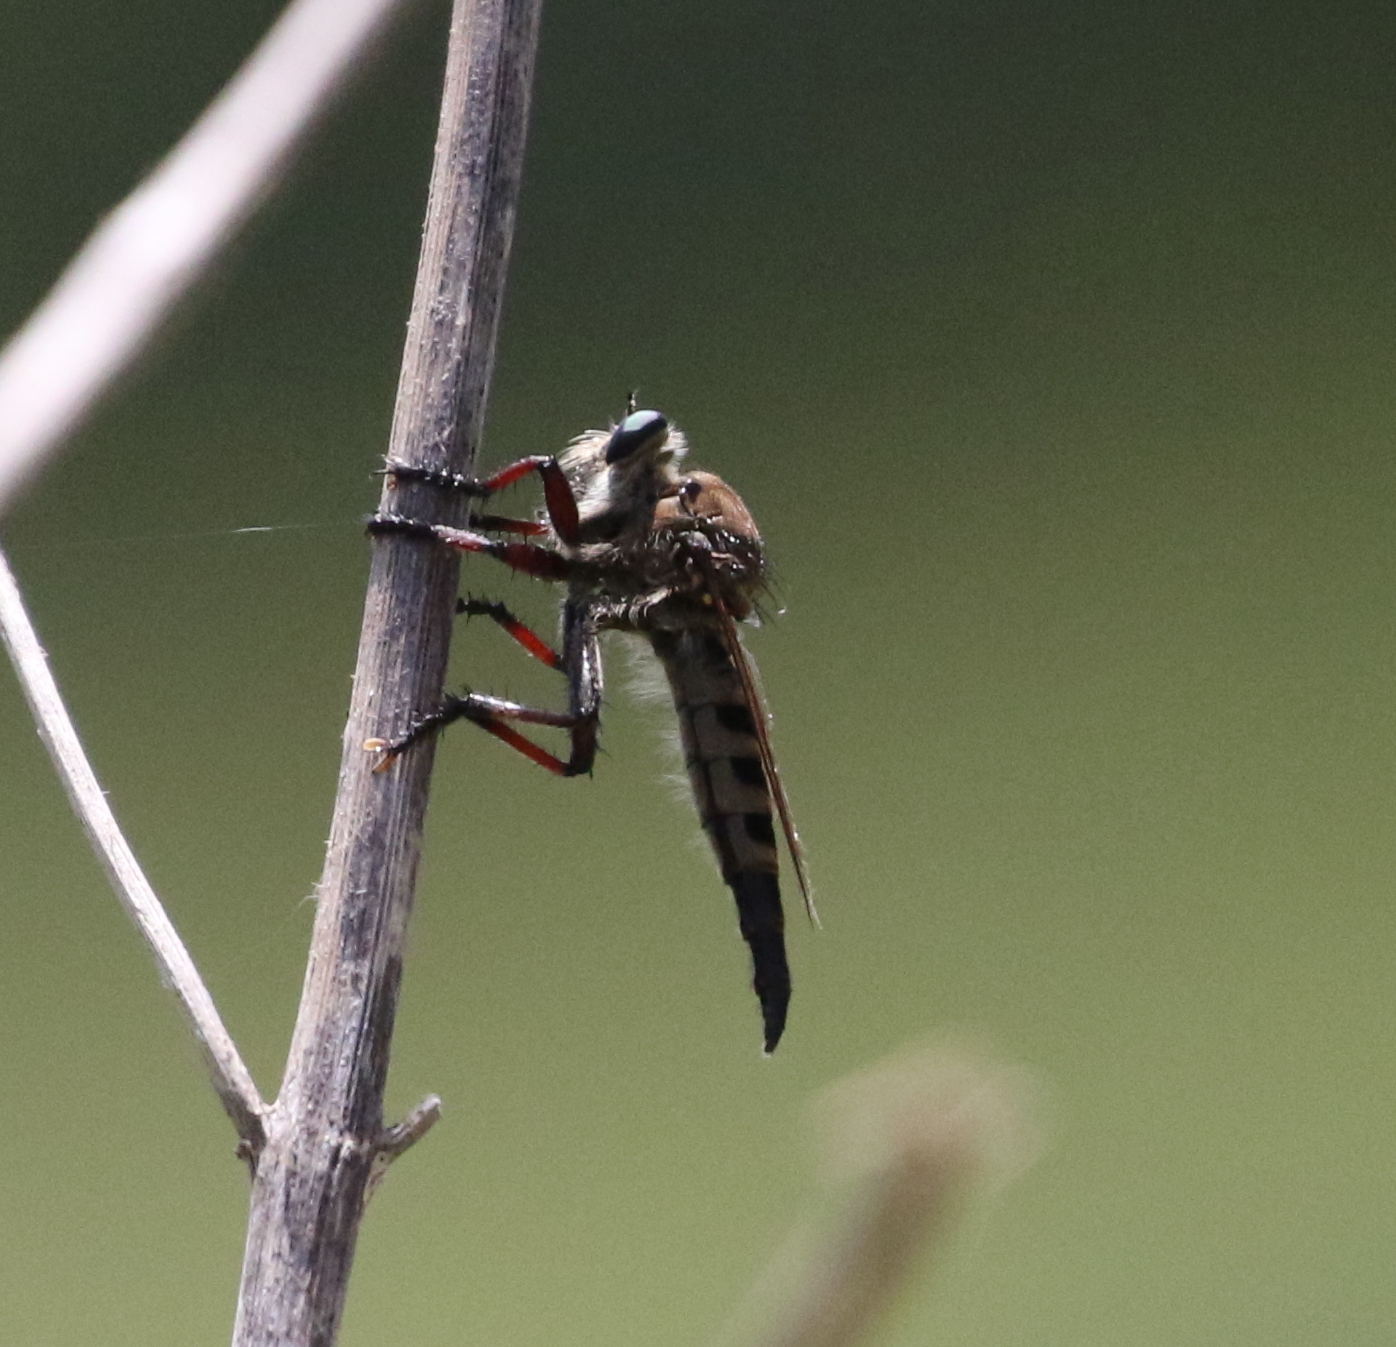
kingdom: Animalia
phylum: Arthropoda
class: Insecta
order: Diptera
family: Asilidae
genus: Promachus
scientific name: Promachus hinei
